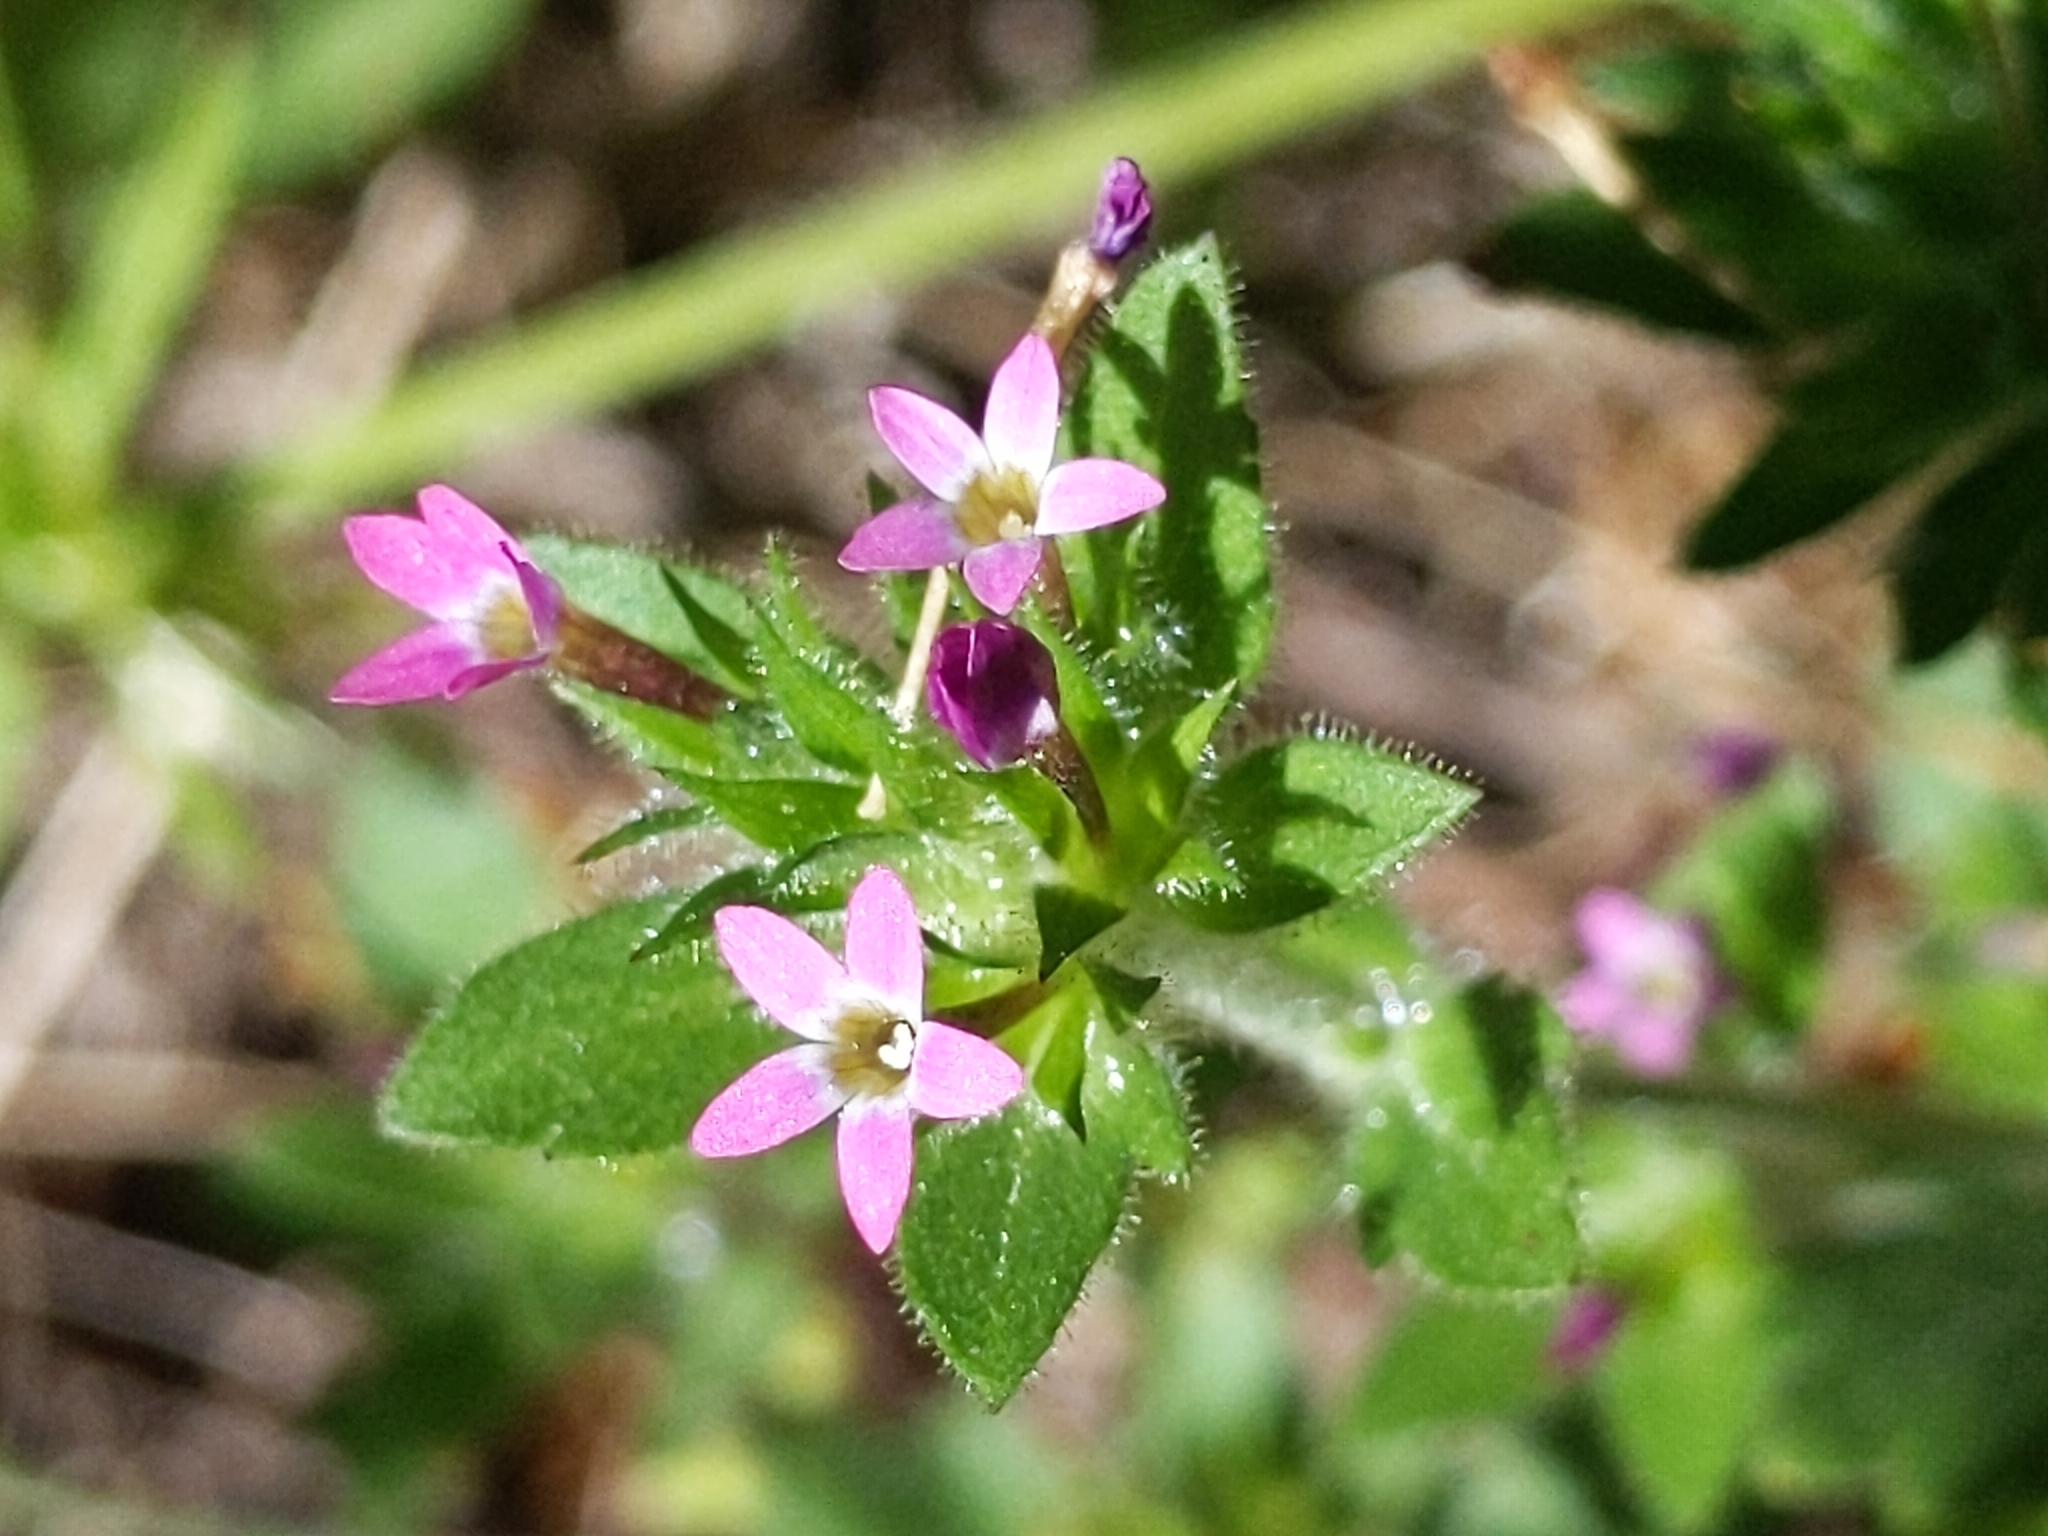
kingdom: Plantae
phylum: Tracheophyta
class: Magnoliopsida
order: Ericales
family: Polemoniaceae
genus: Collomia
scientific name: Collomia heterophylla
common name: Variable-leaved collomia
